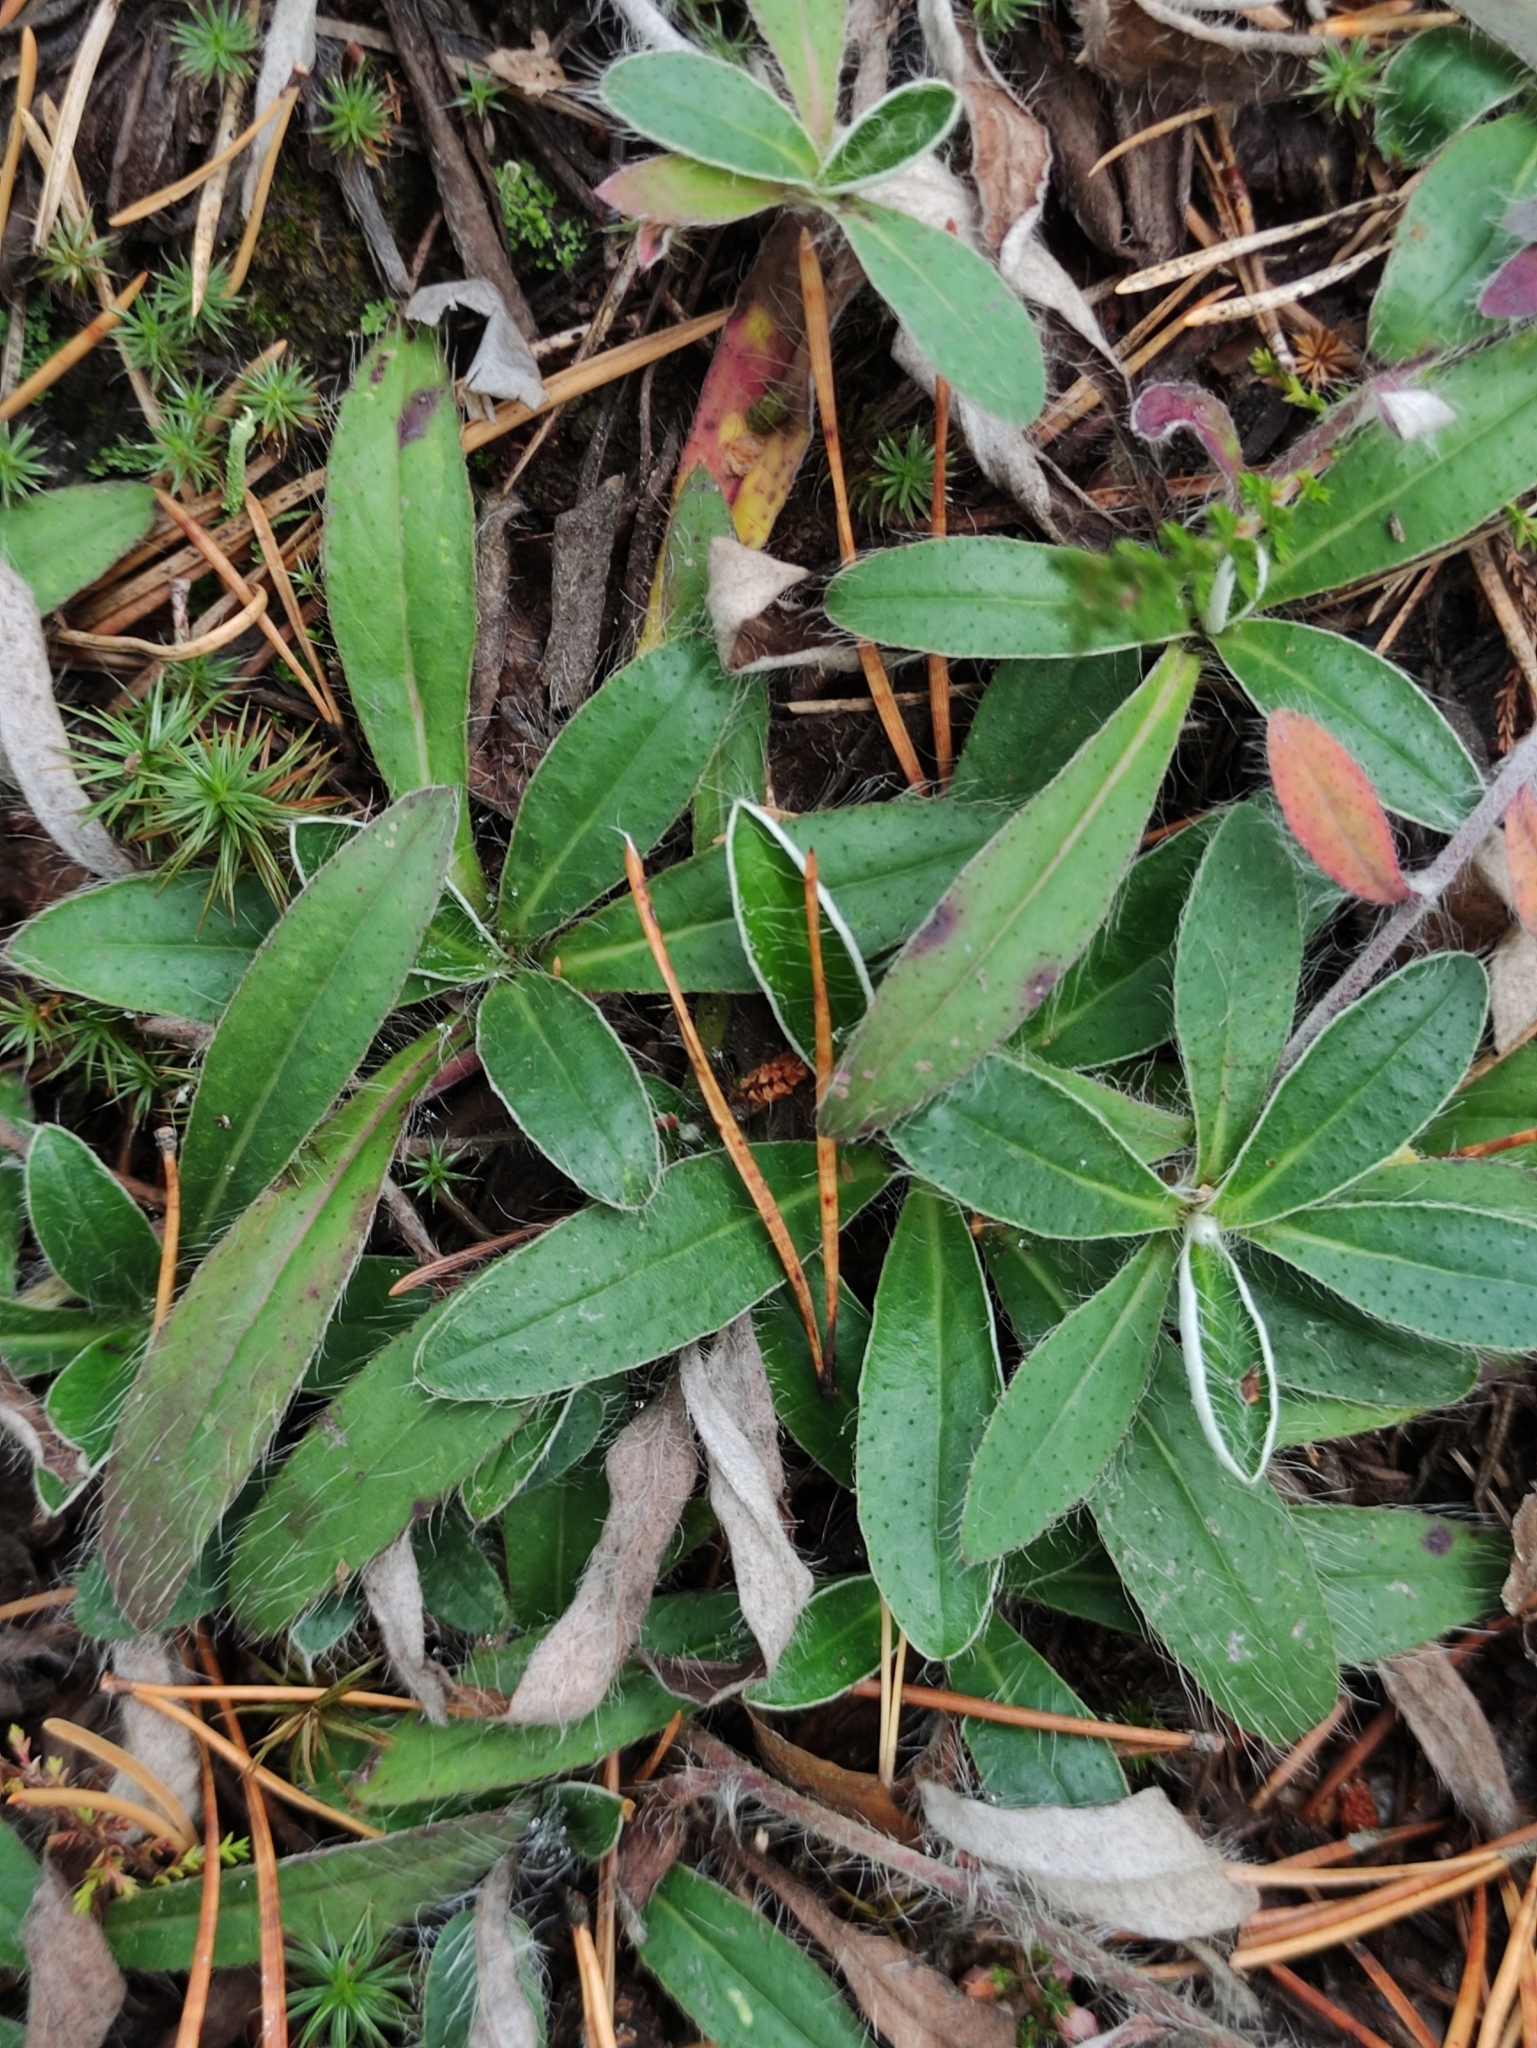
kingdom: Plantae
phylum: Tracheophyta
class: Magnoliopsida
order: Asterales
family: Asteraceae
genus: Pilosella
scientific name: Pilosella officinarum
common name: Mouse-ear hawkweed
